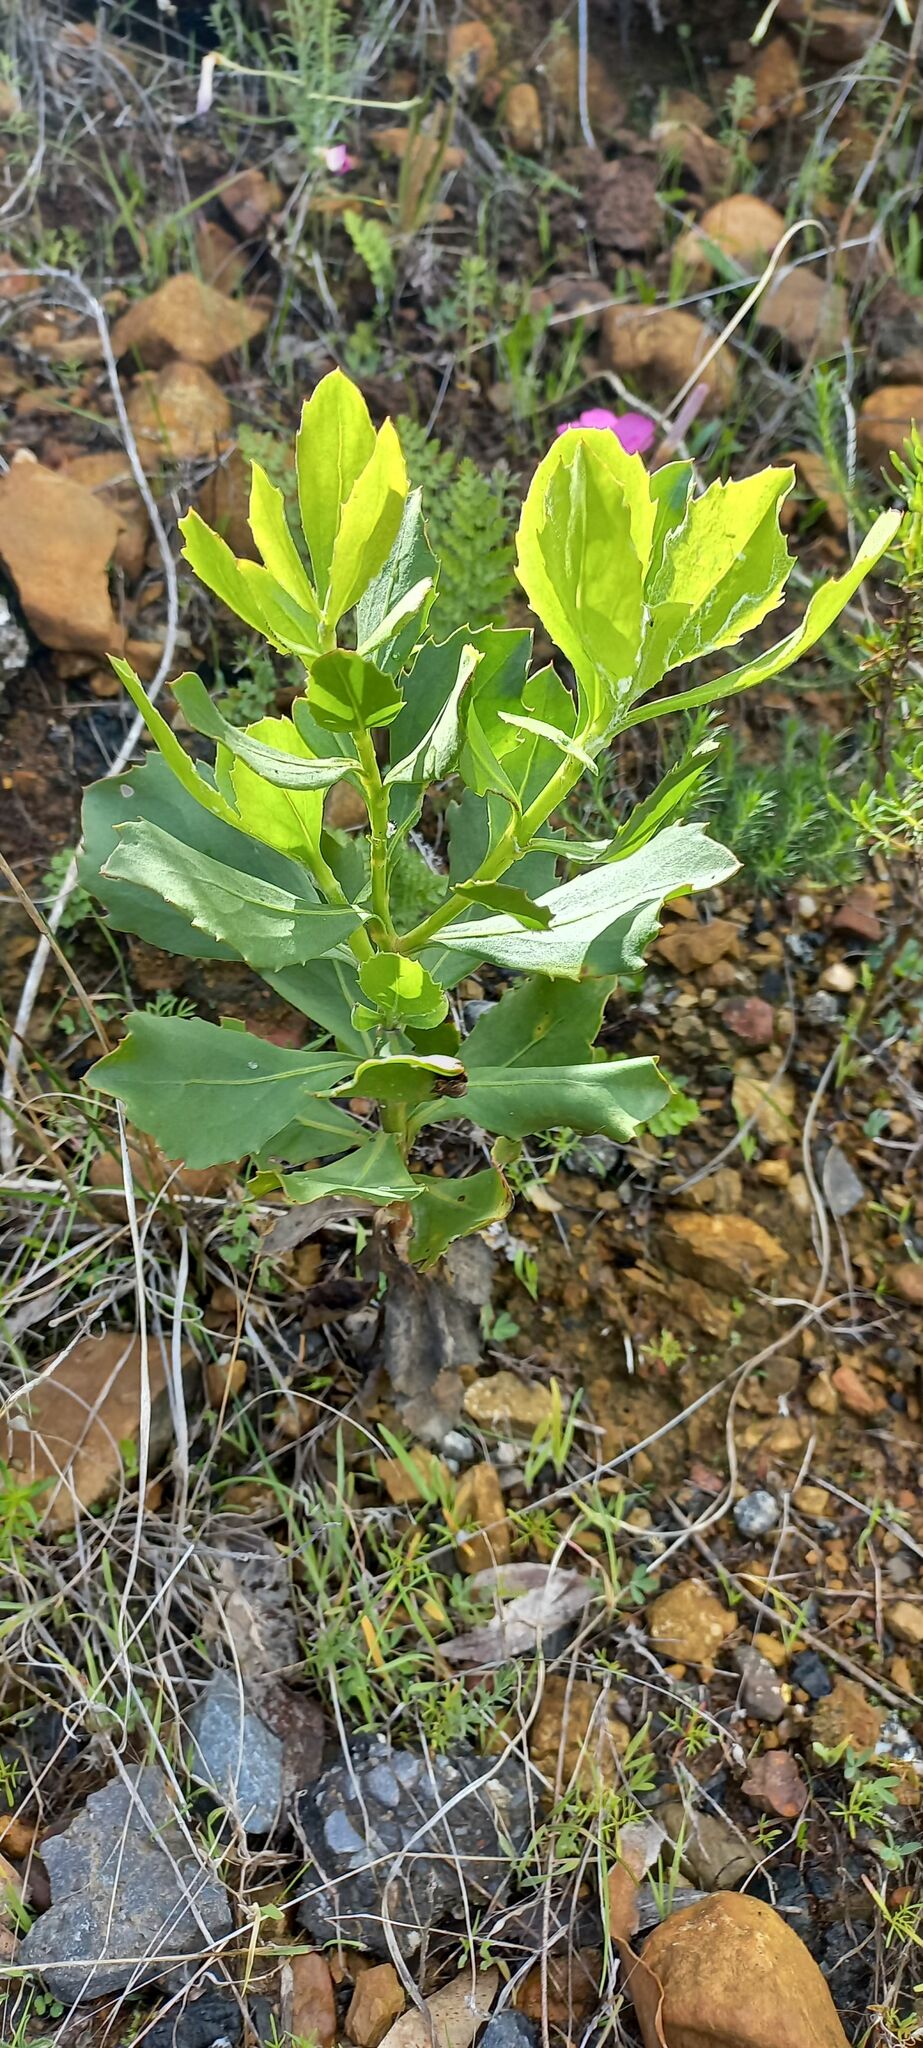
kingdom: Plantae
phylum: Tracheophyta
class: Magnoliopsida
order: Asterales
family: Asteraceae
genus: Osteospermum
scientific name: Osteospermum moniliferum
